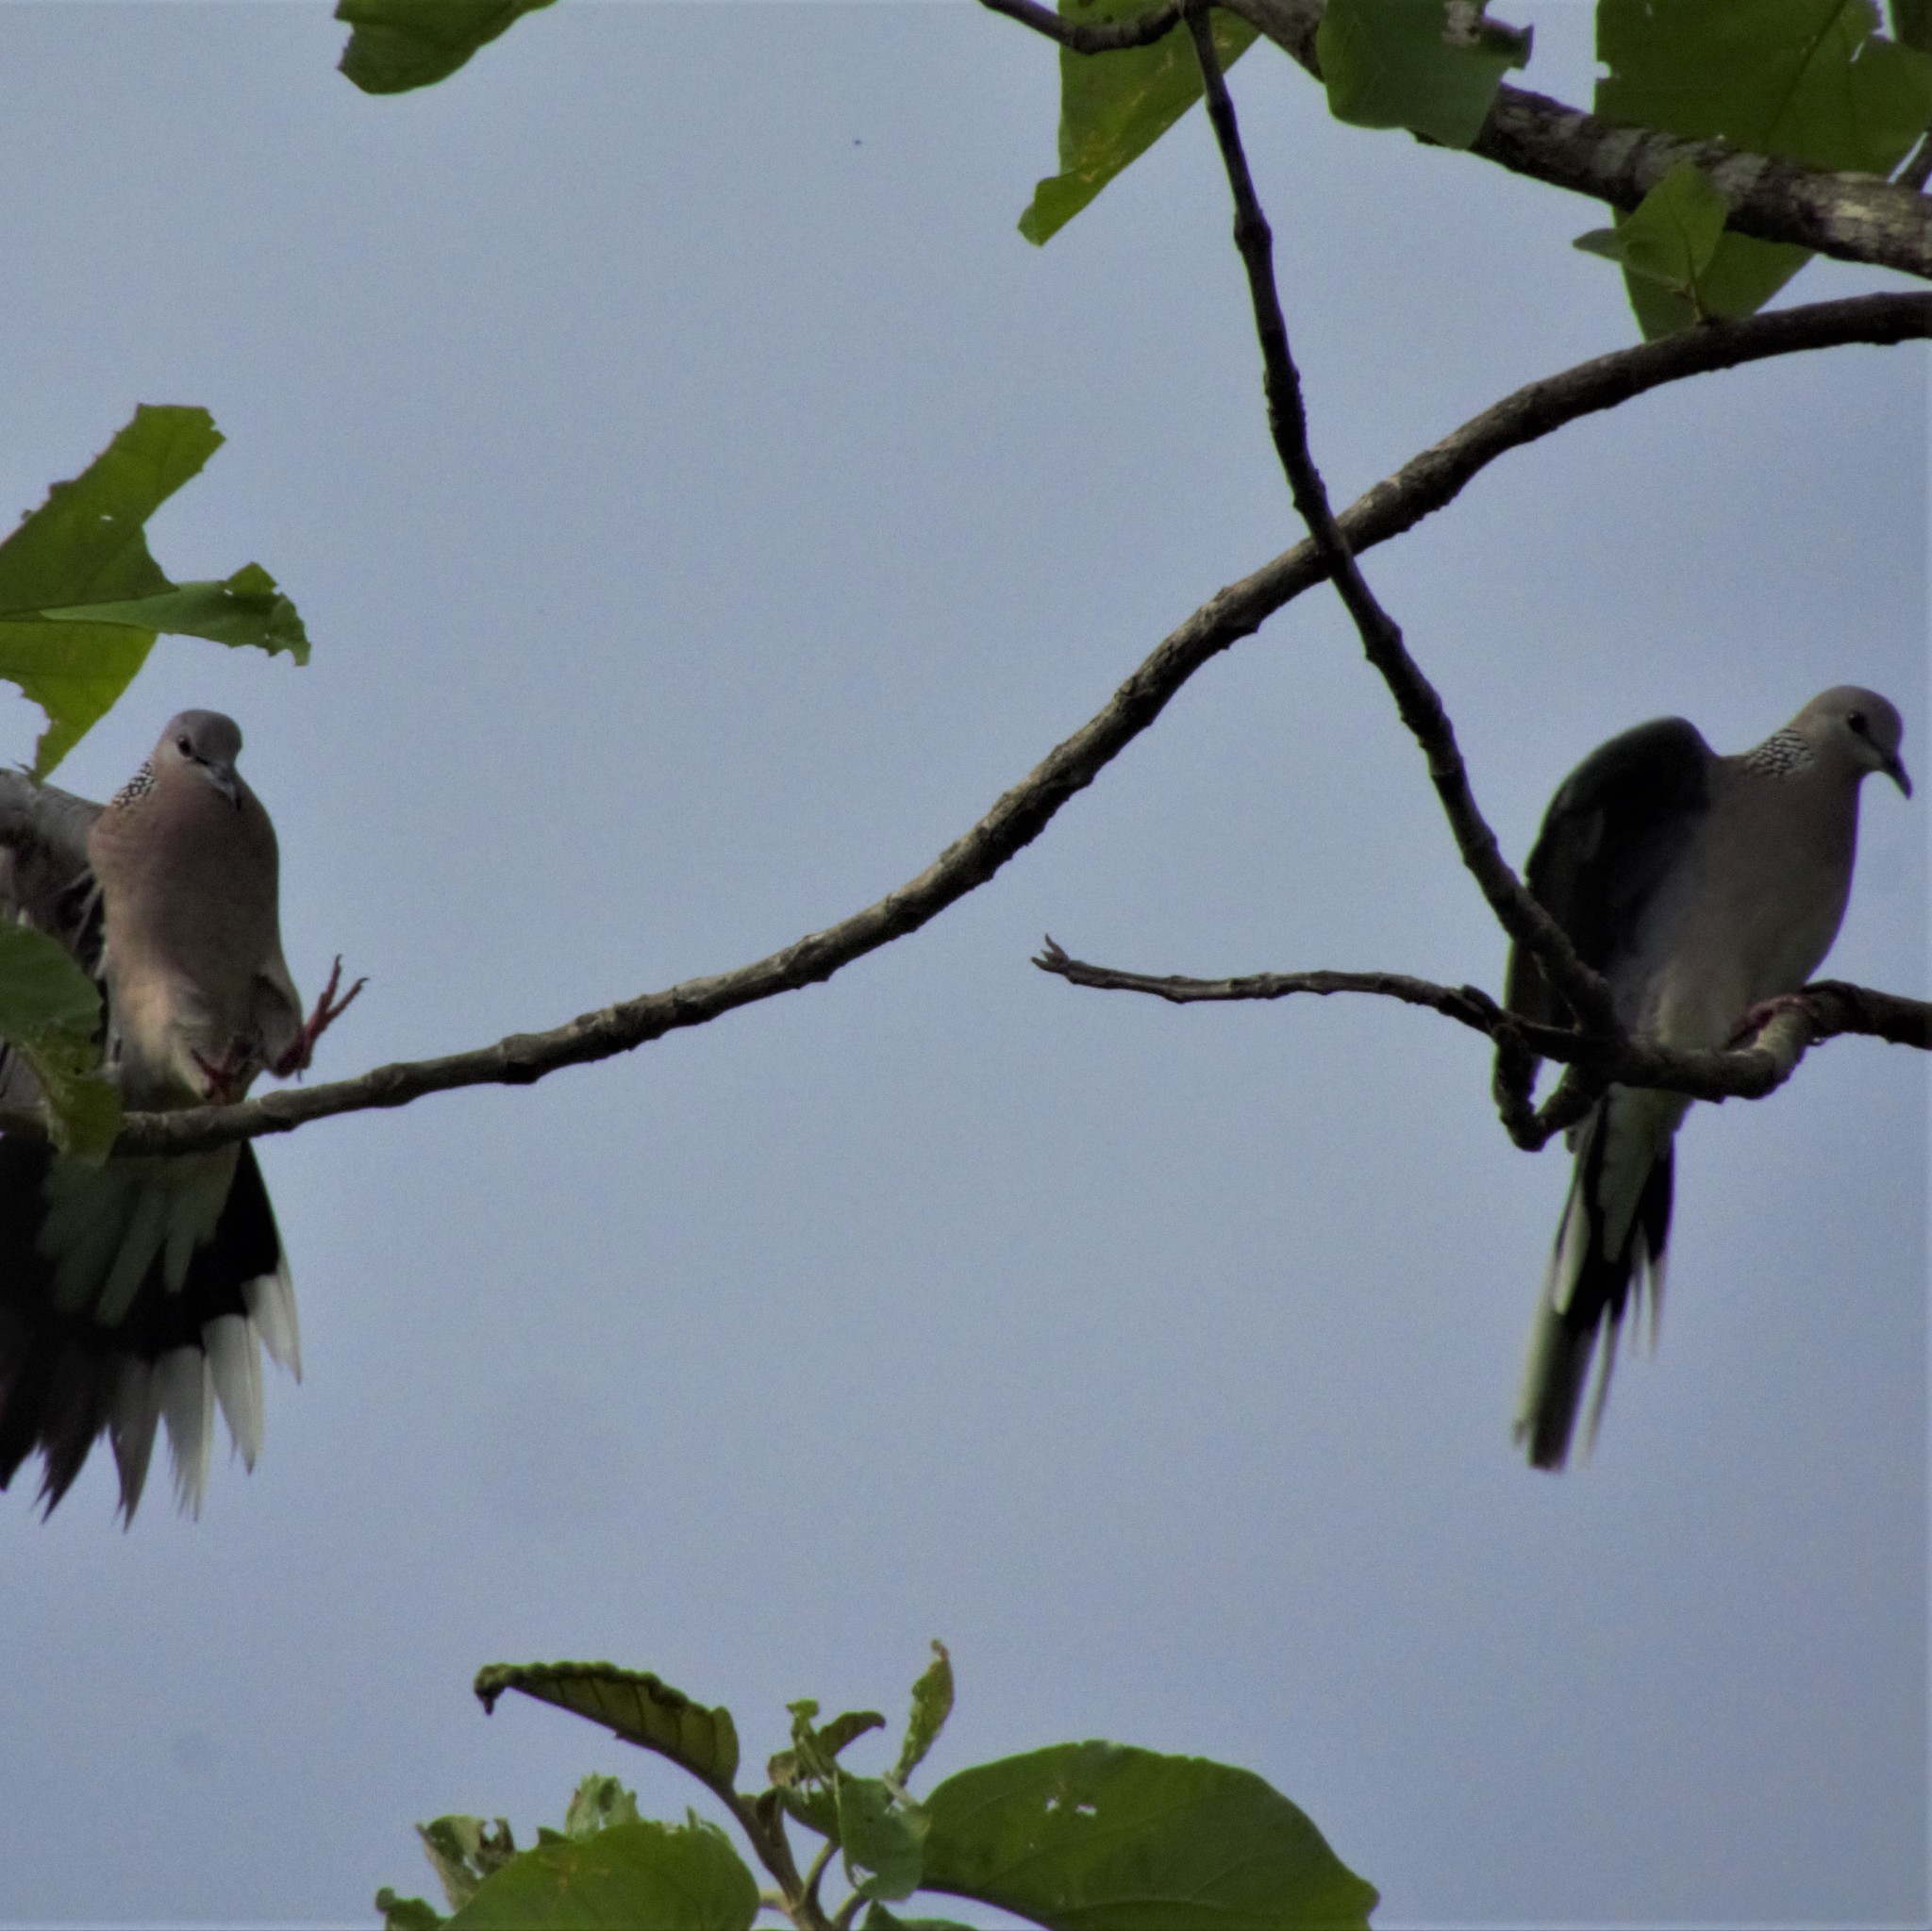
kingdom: Animalia
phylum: Chordata
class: Aves
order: Columbiformes
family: Columbidae
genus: Spilopelia
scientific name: Spilopelia chinensis
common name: Spotted dove
